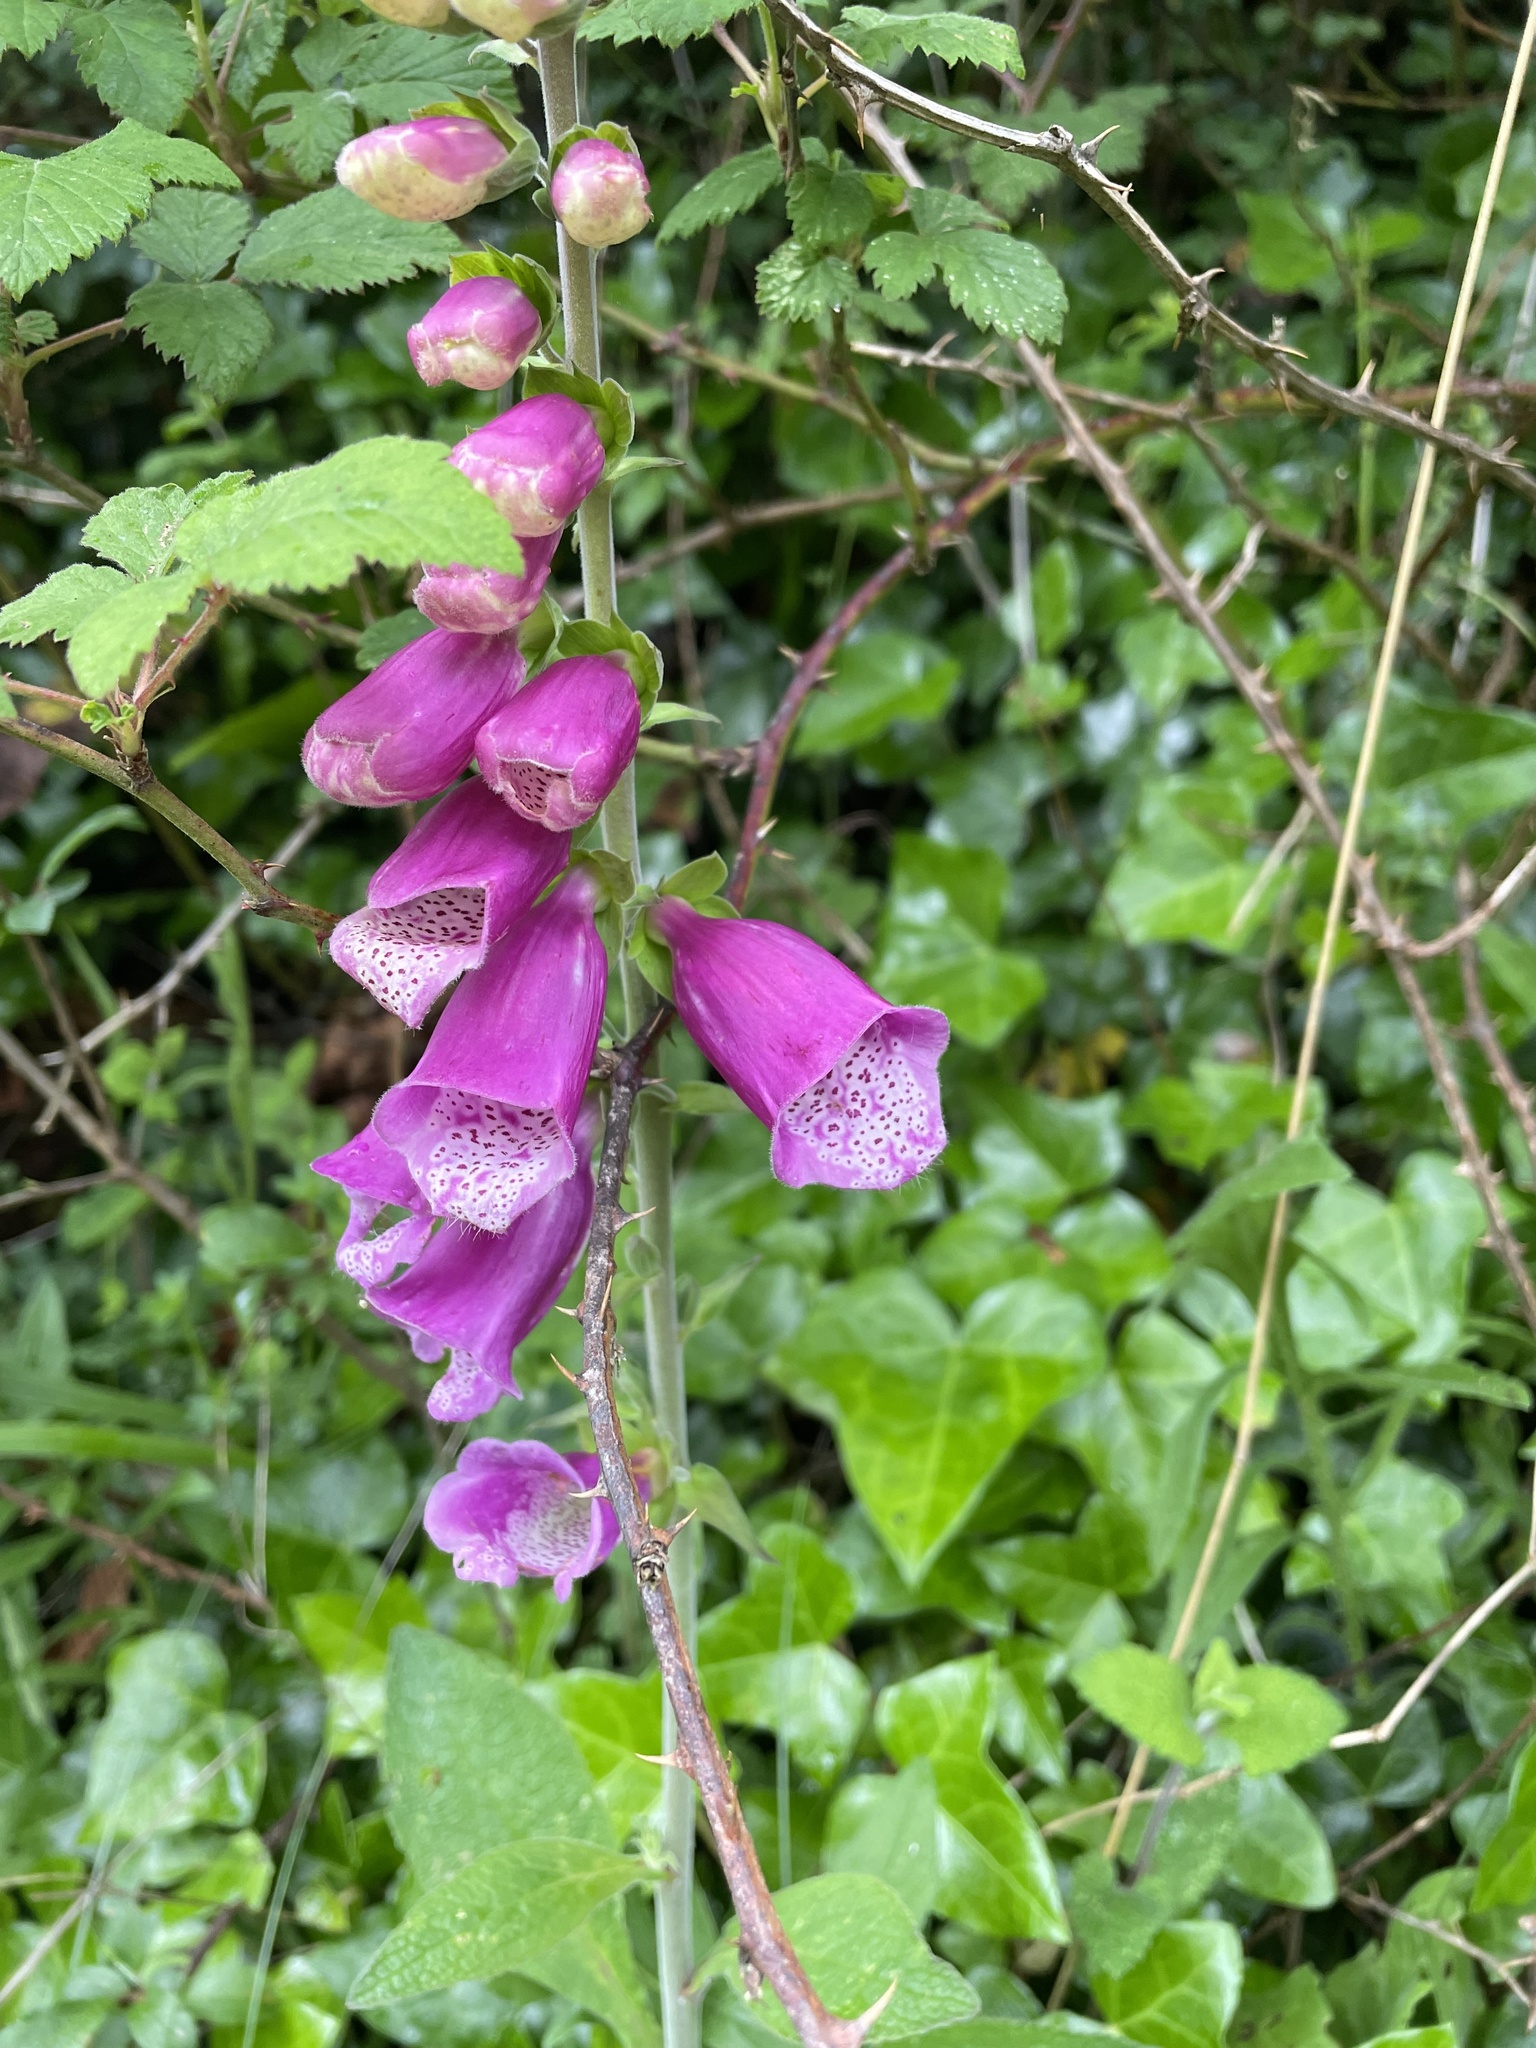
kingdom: Plantae
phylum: Tracheophyta
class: Magnoliopsida
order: Lamiales
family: Plantaginaceae
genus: Digitalis
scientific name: Digitalis purpurea
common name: Foxglove
